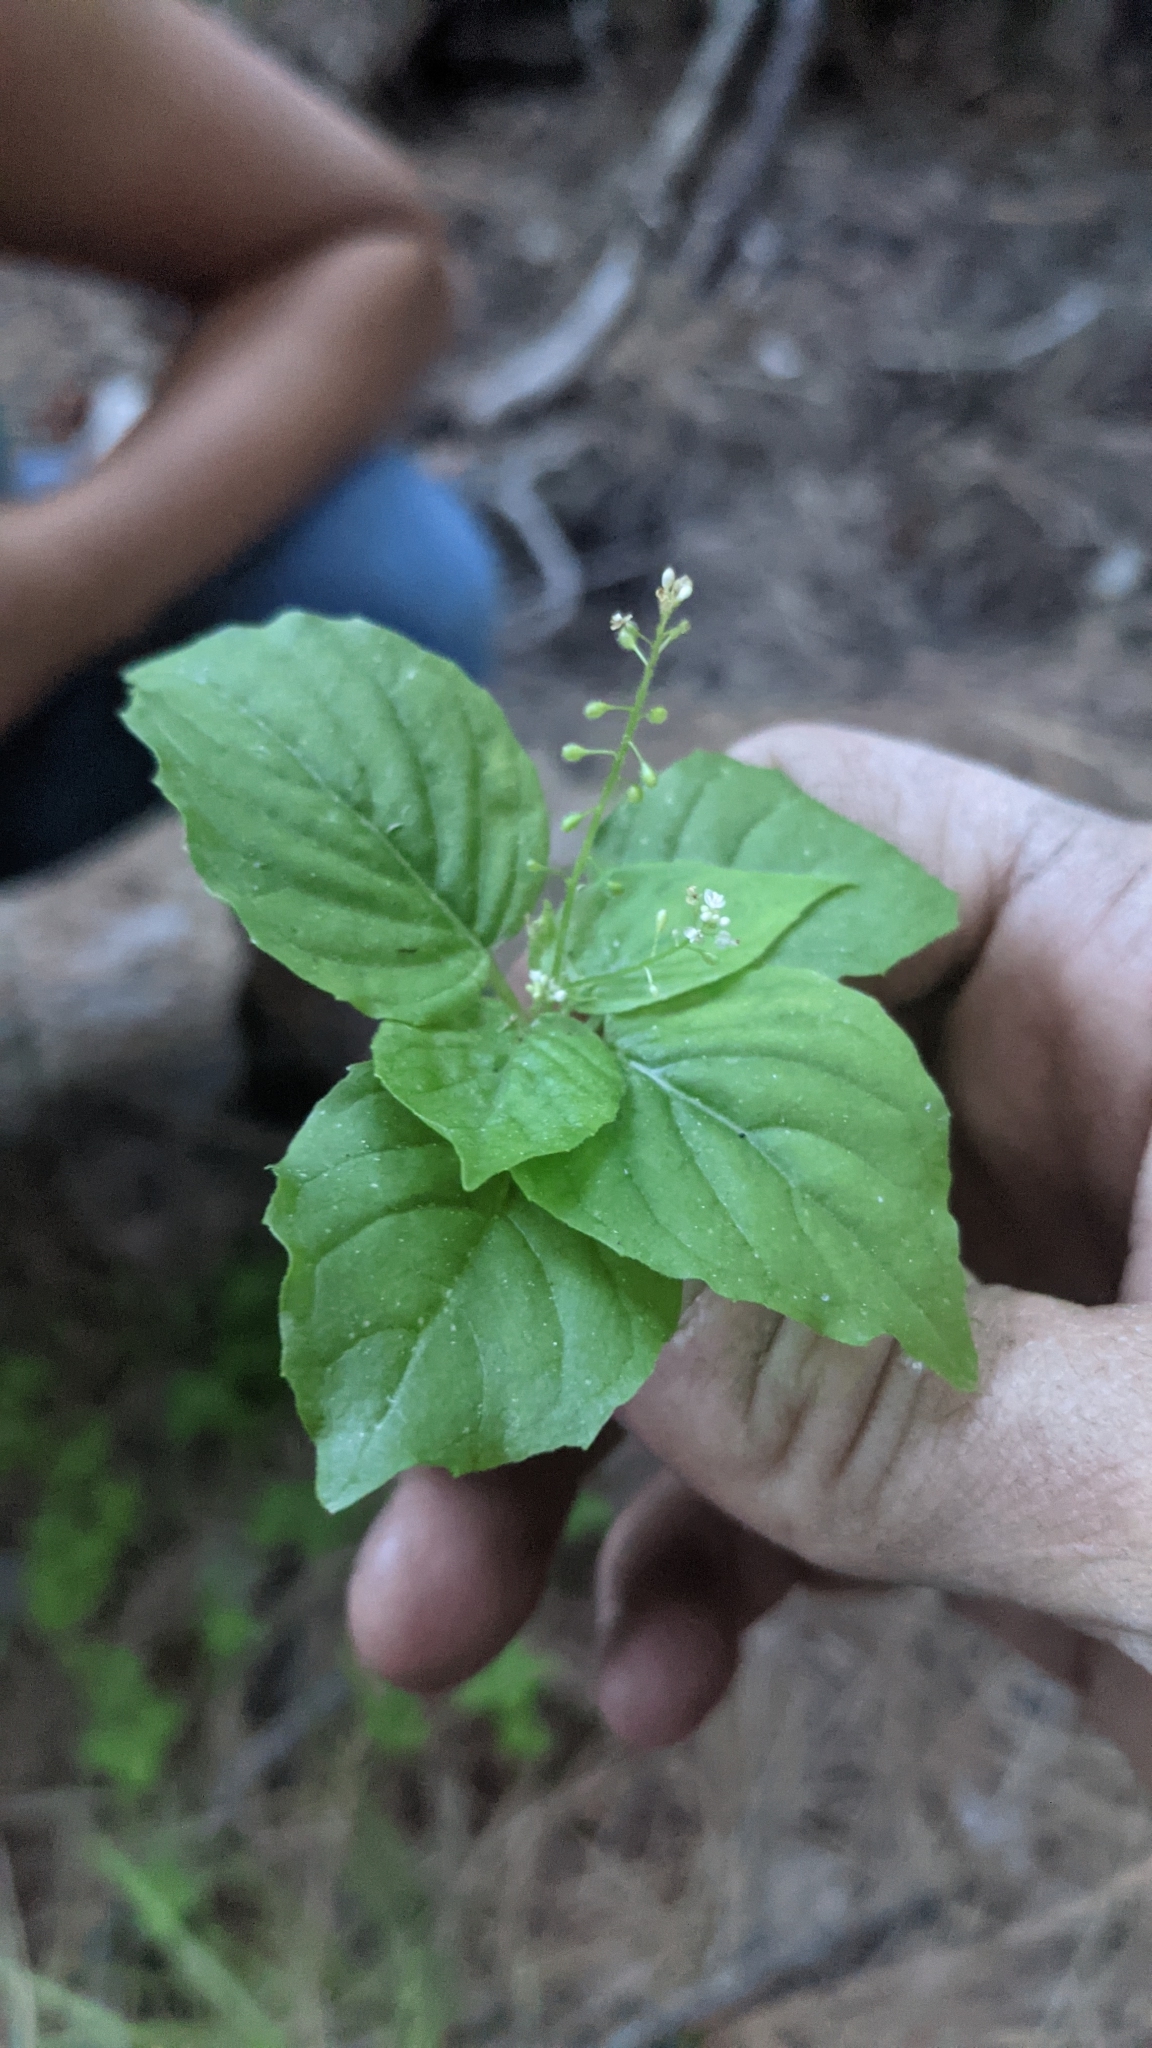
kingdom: Plantae
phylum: Tracheophyta
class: Magnoliopsida
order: Myrtales
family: Onagraceae
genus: Circaea
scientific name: Circaea alpina
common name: Alpine enchanter's-nightshade
